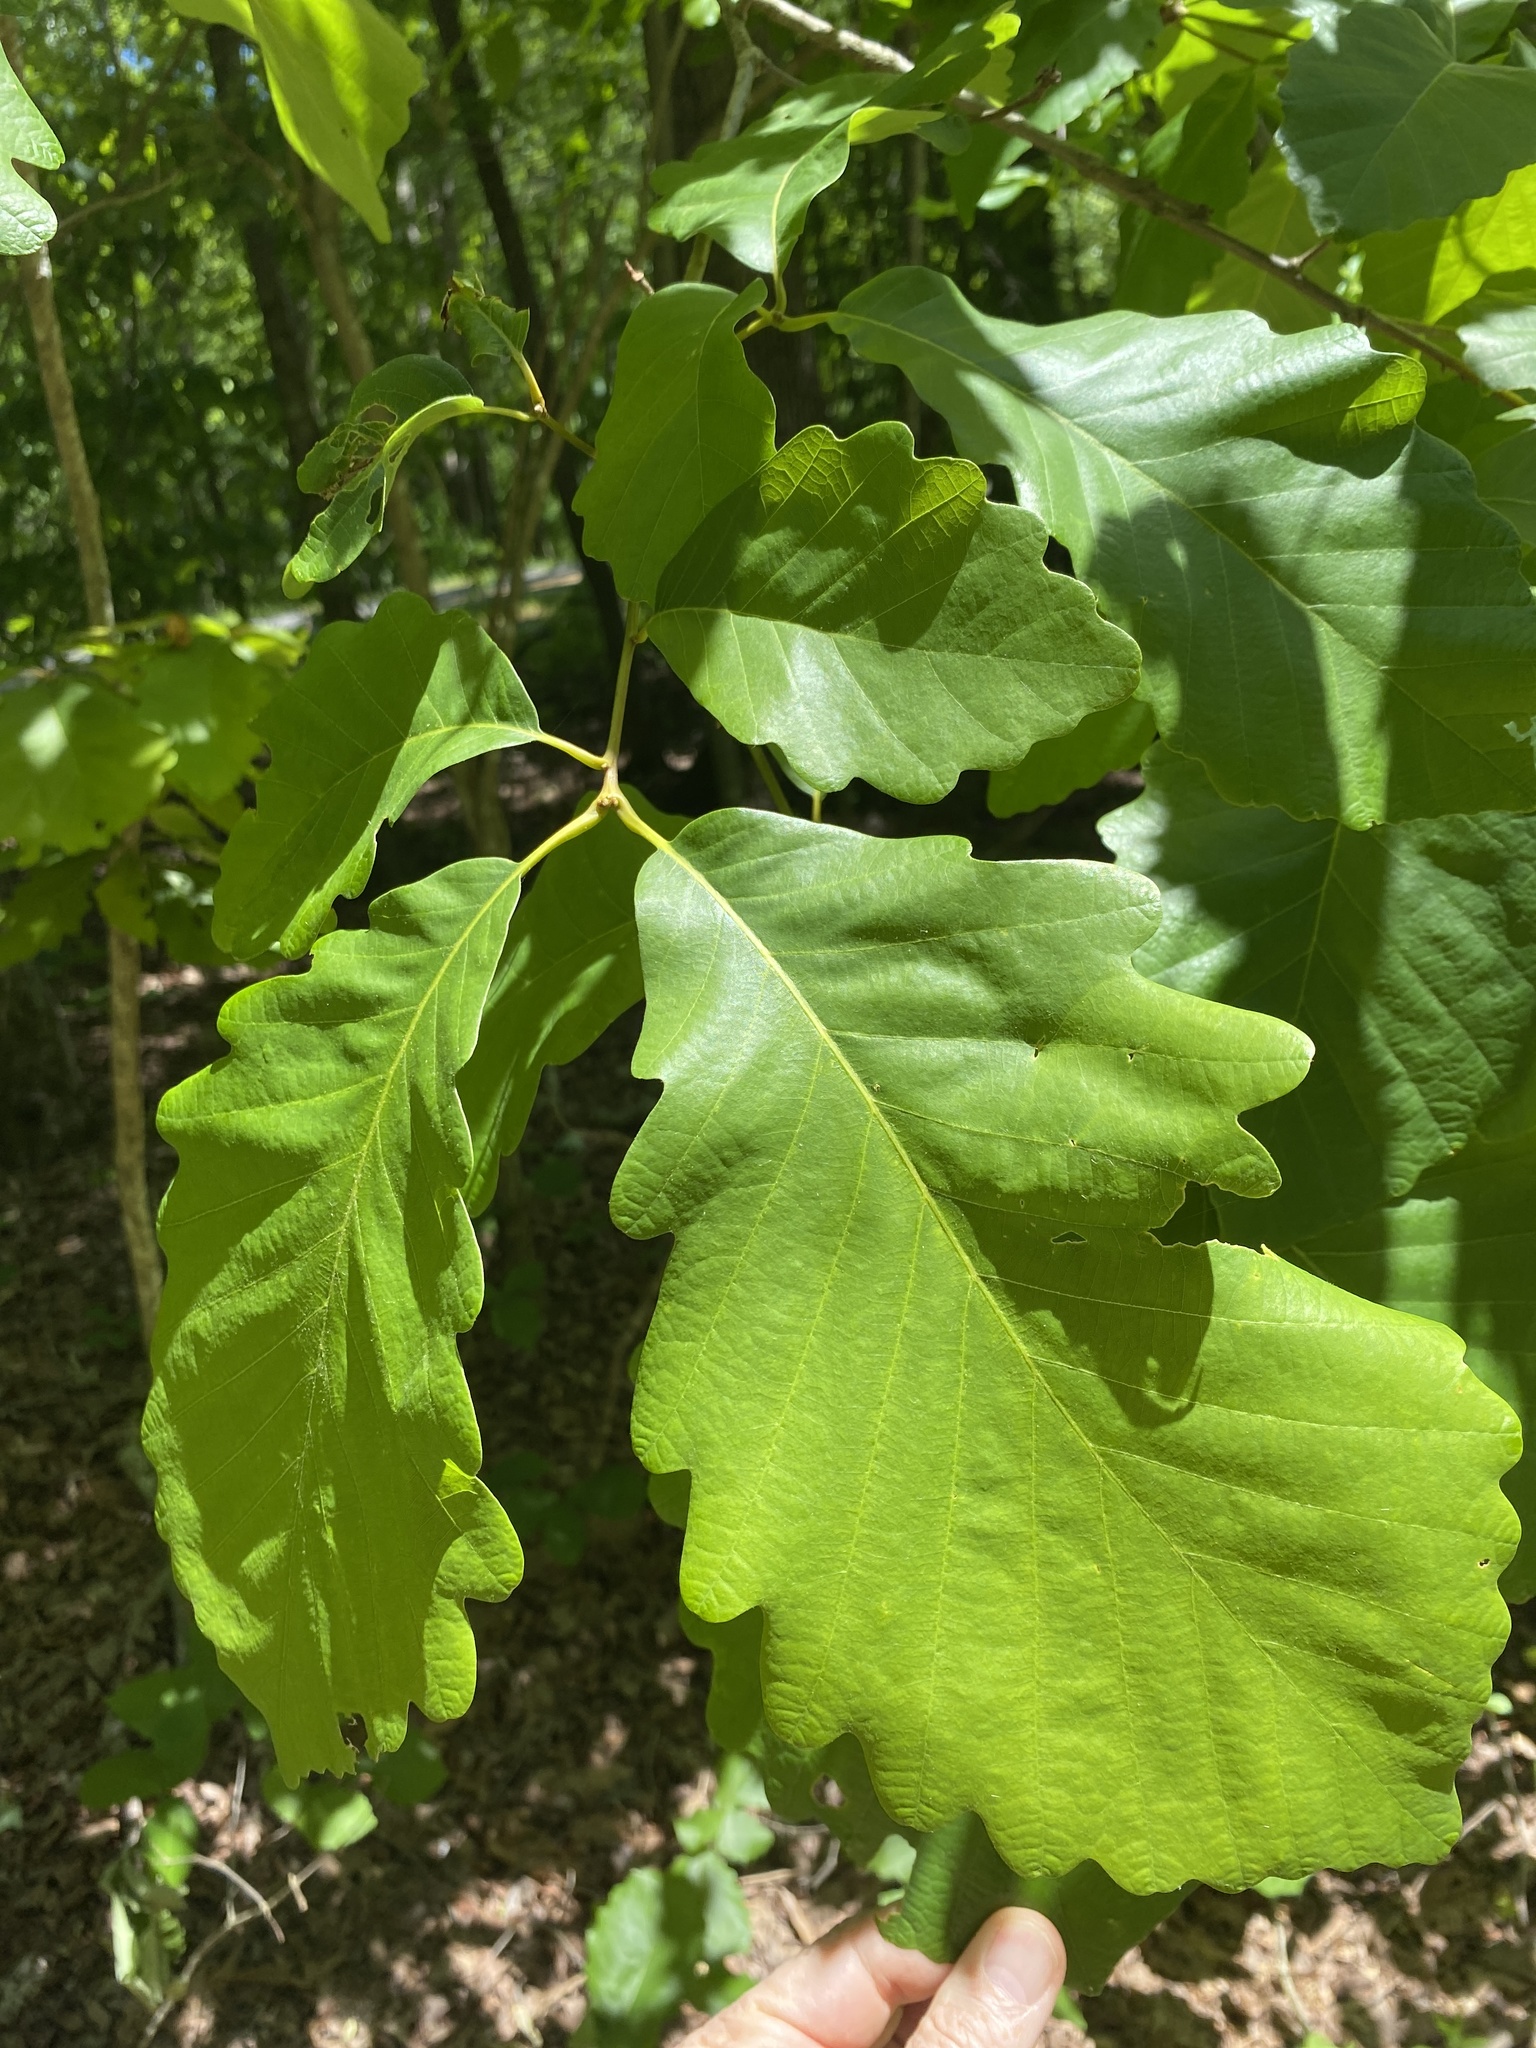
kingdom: Plantae
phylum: Tracheophyta
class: Magnoliopsida
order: Fagales
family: Fagaceae
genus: Quercus
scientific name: Quercus montana
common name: Chestnut oak
